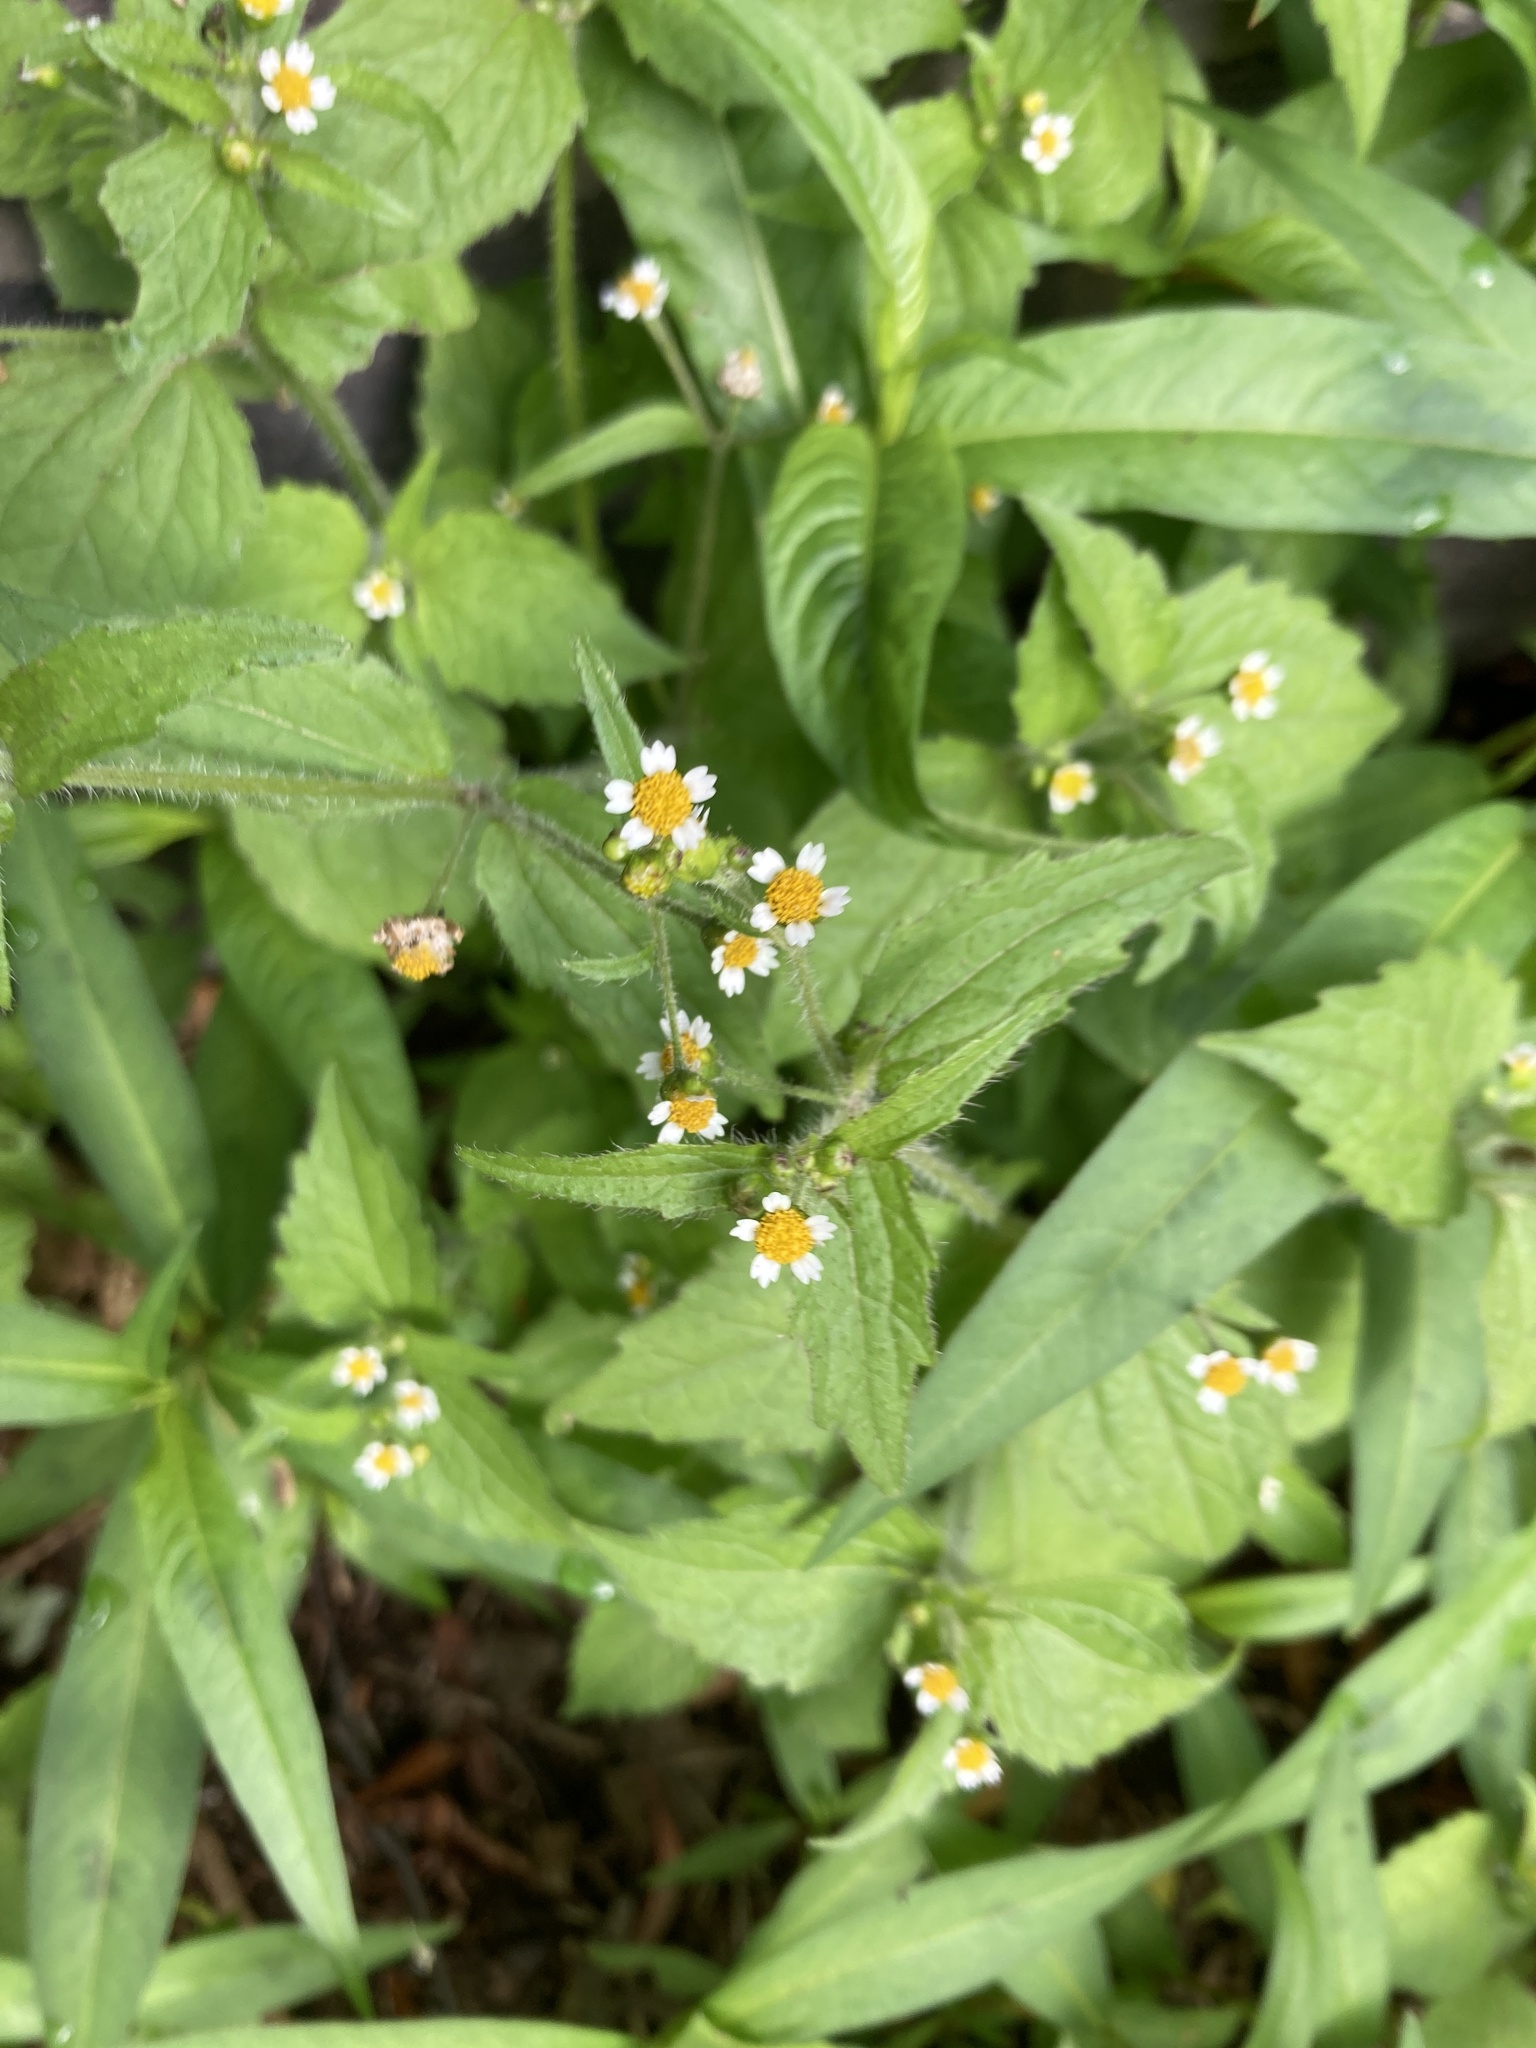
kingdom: Plantae
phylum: Tracheophyta
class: Magnoliopsida
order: Asterales
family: Asteraceae
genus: Galinsoga
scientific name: Galinsoga quadriradiata
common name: Shaggy soldier
